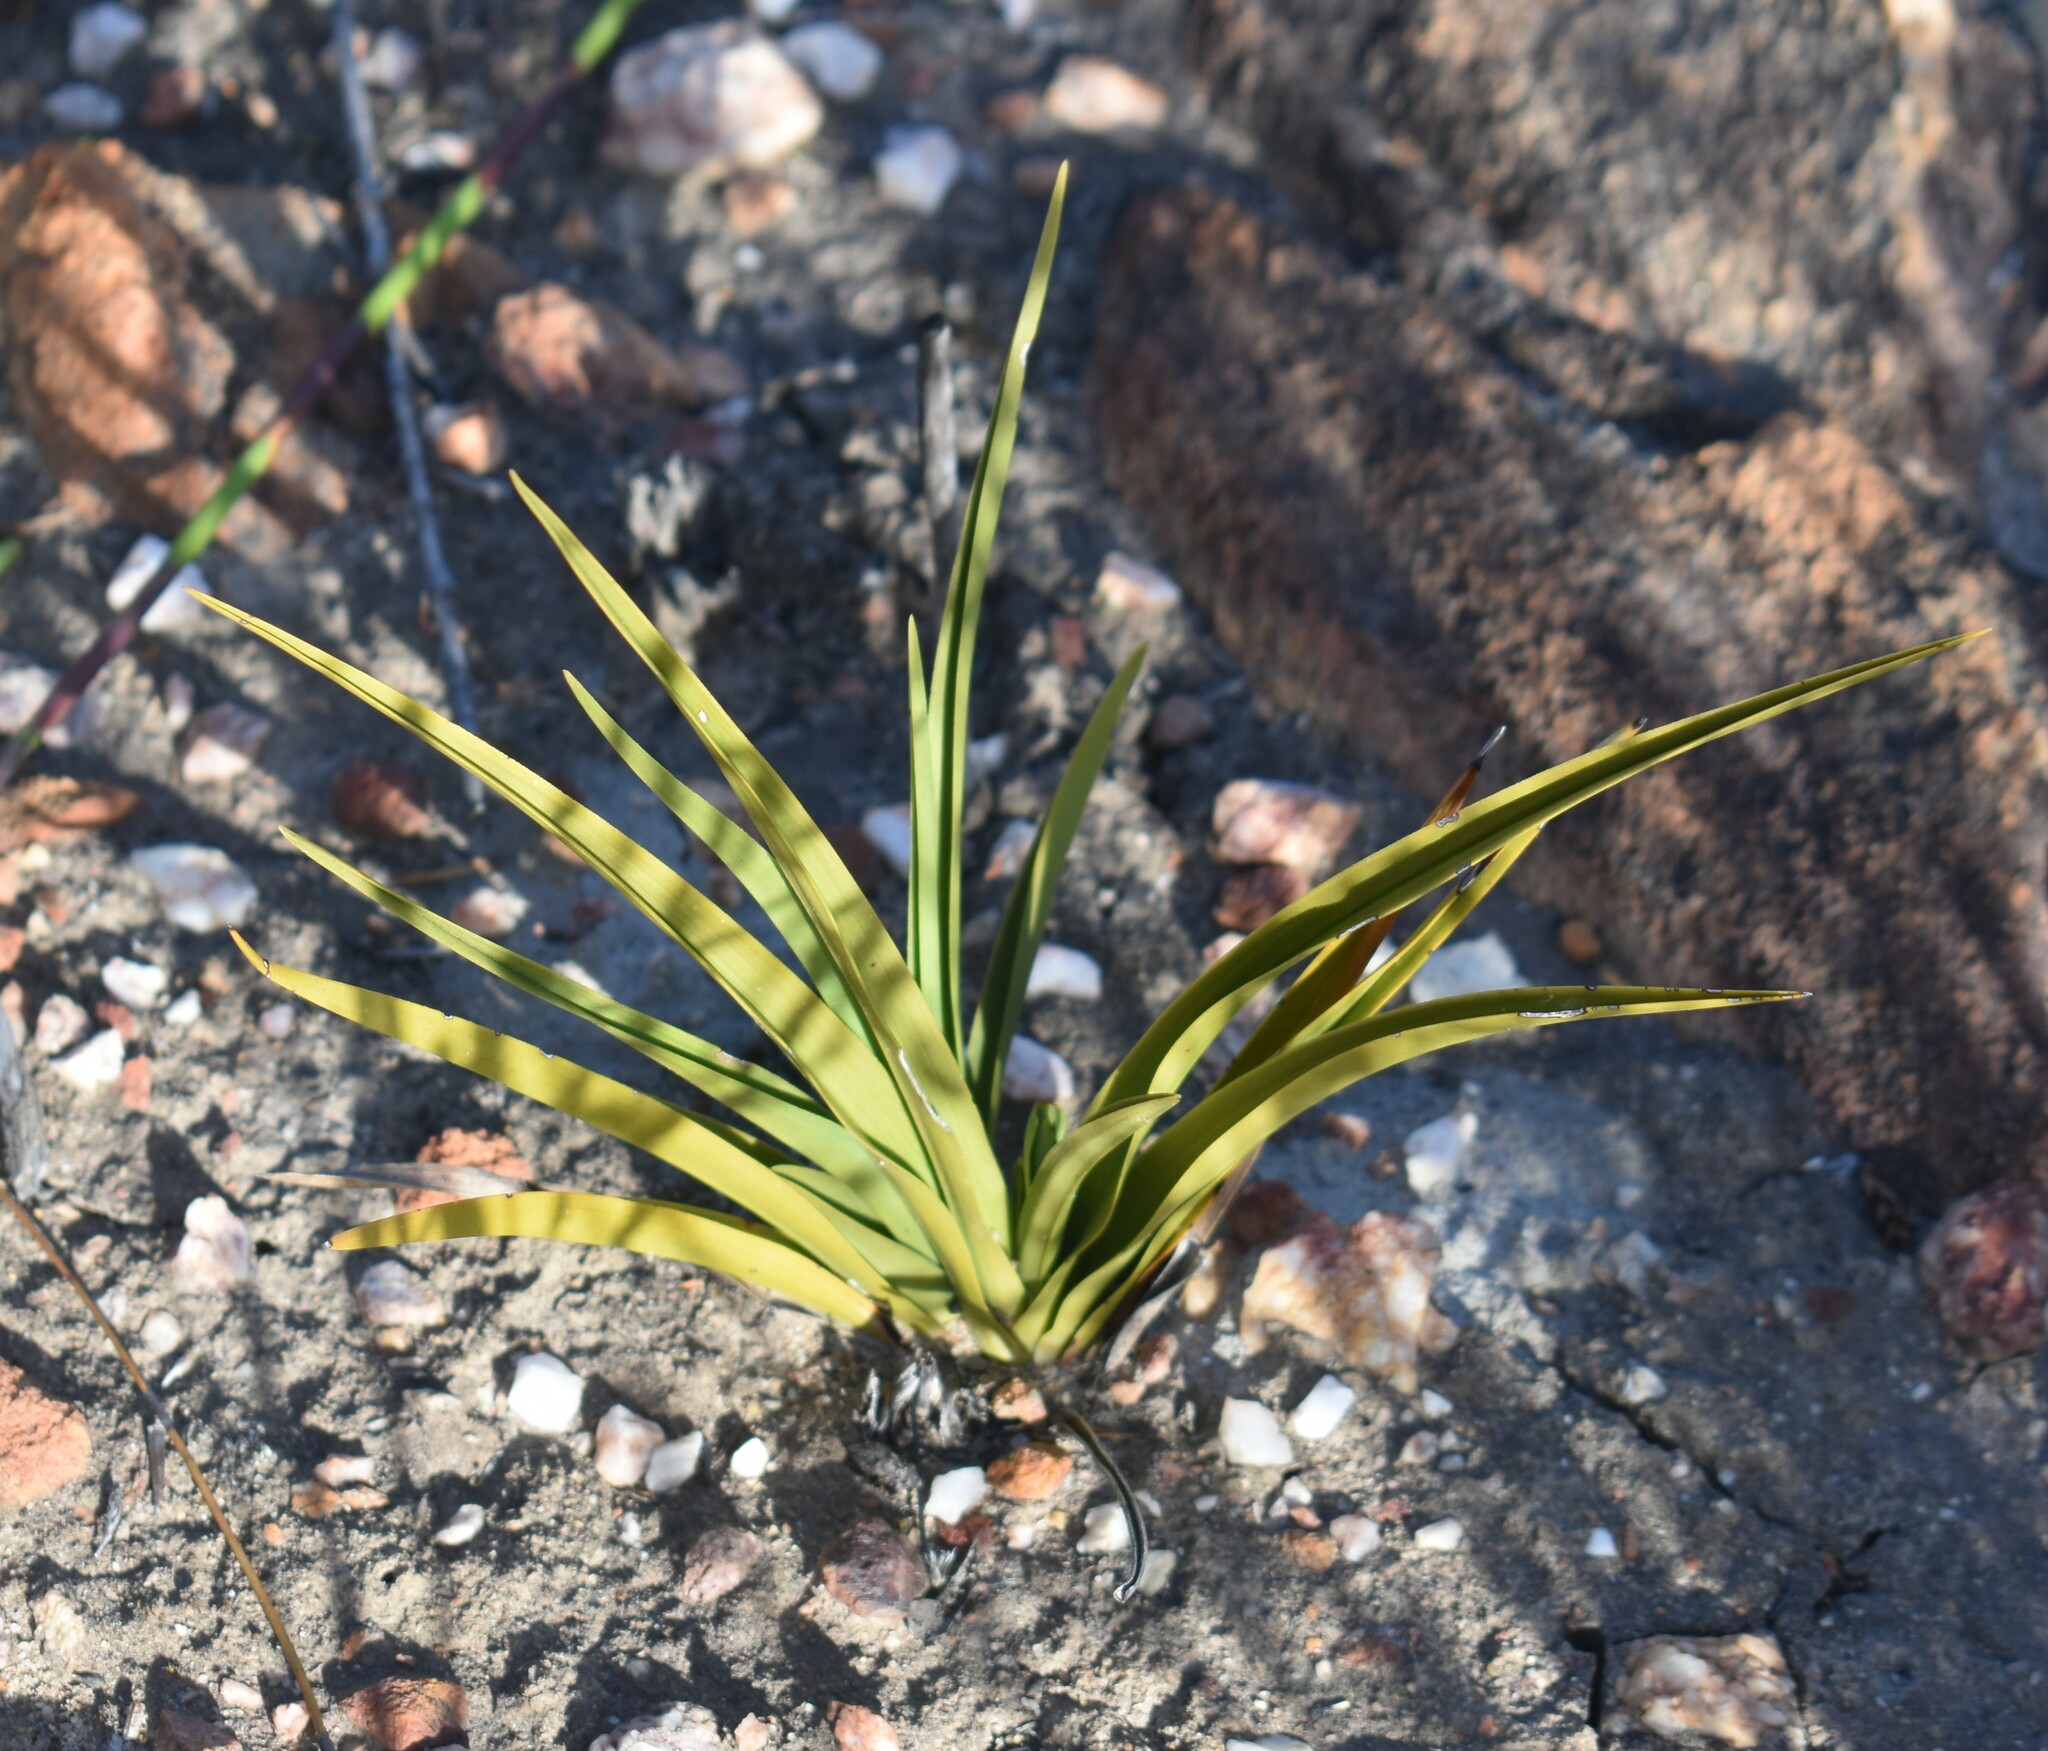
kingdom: Plantae
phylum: Tracheophyta
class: Liliopsida
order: Asparagales
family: Orchidaceae
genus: Eulophia
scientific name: Eulophia tristis
